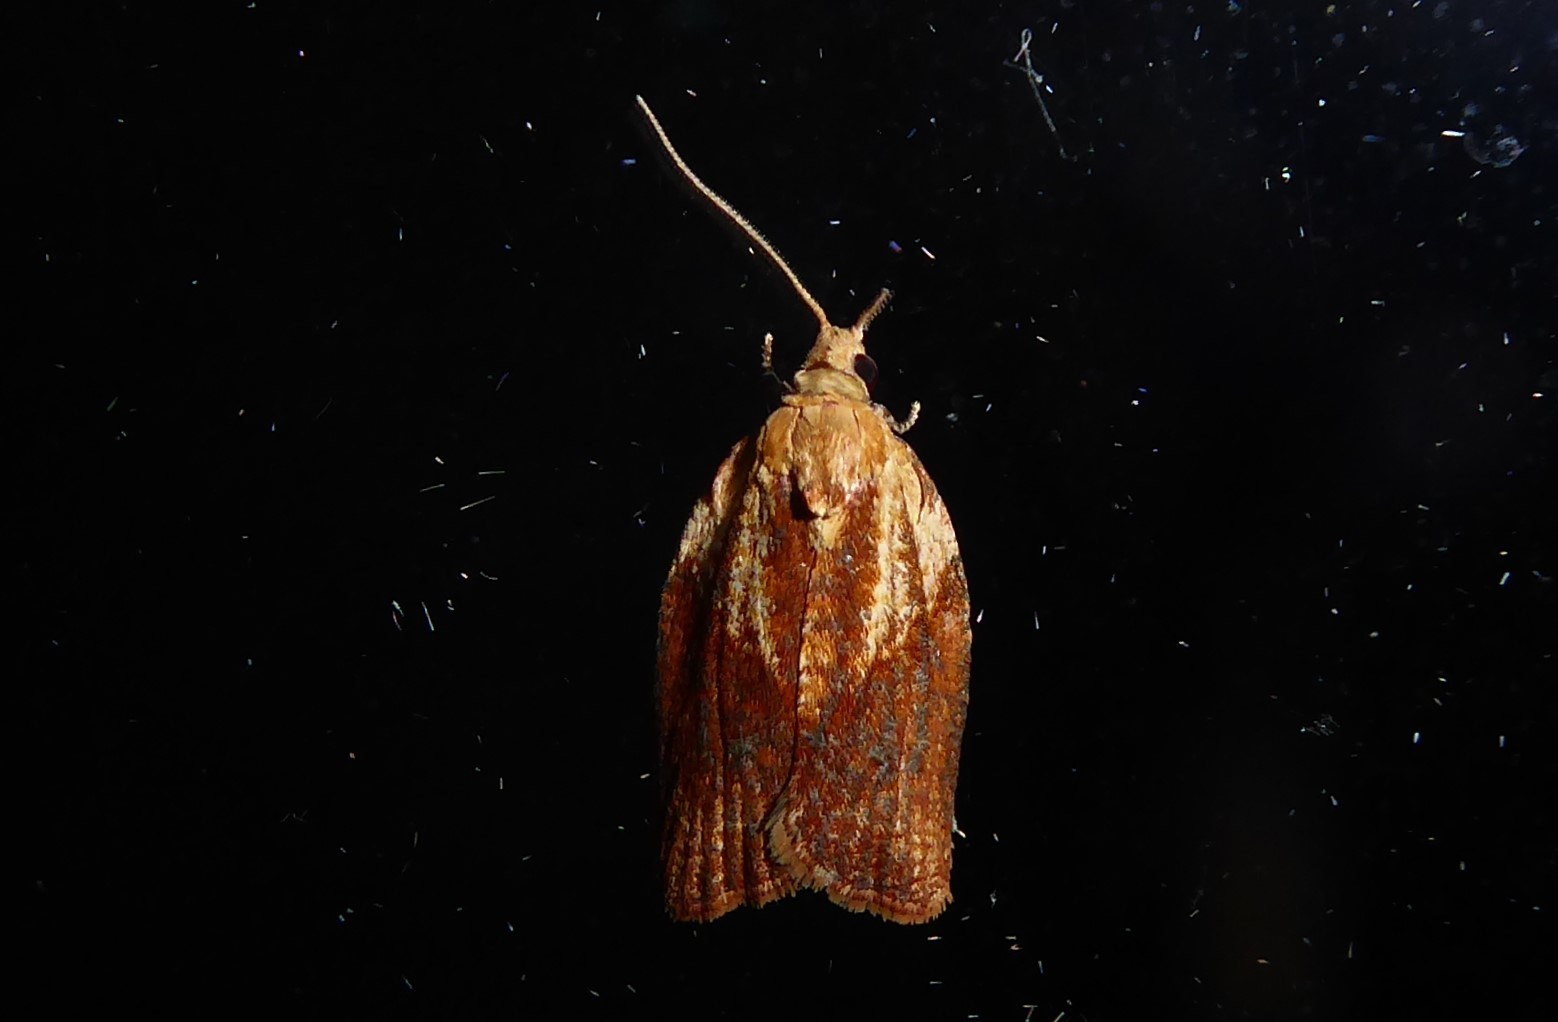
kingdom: Animalia
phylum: Arthropoda
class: Insecta
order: Lepidoptera
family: Tortricidae
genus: Epiphyas
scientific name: Epiphyas postvittana
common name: Light brown apple moth
